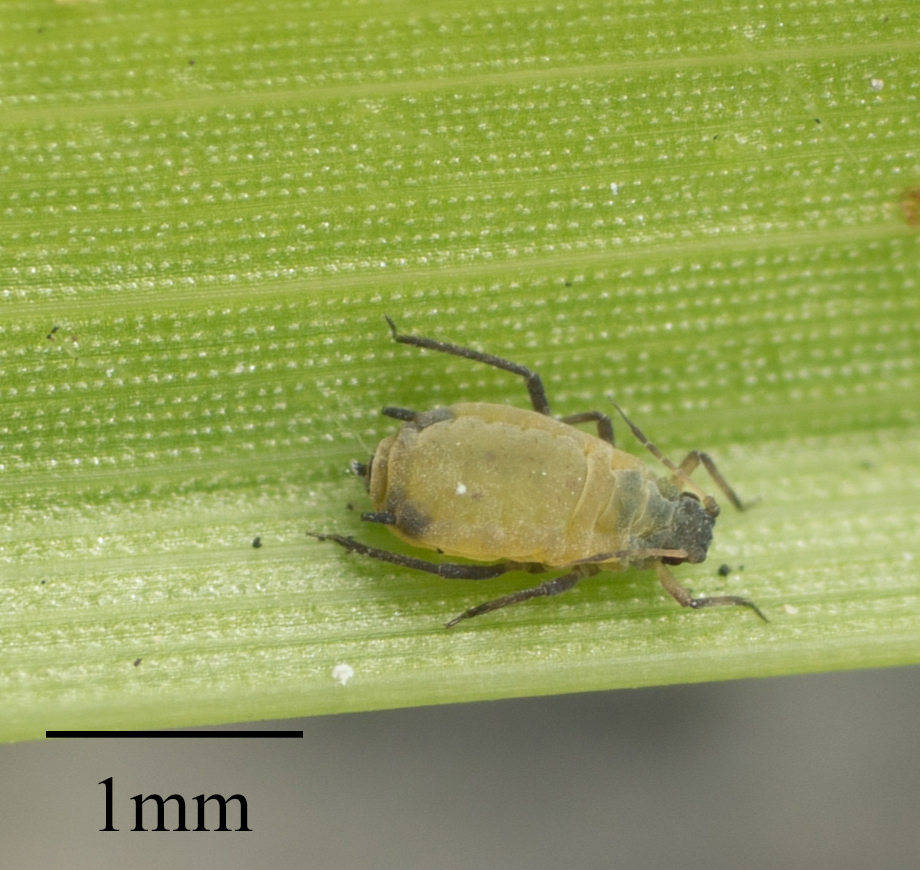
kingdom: Animalia
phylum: Arthropoda
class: Insecta
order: Hemiptera
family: Aphididae
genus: Rhopalosiphum
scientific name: Rhopalosiphum maidis
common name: Corn leaf aphid
